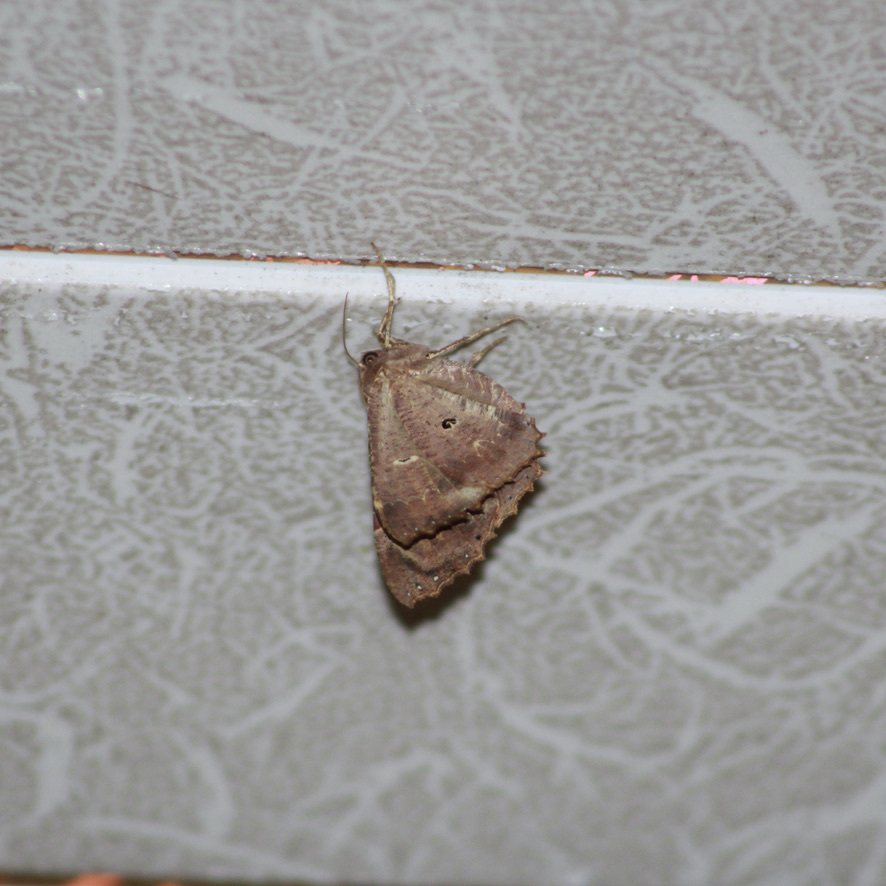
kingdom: Animalia
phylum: Arthropoda
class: Insecta
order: Lepidoptera
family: Geometridae
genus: Pero
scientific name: Pero dularia
